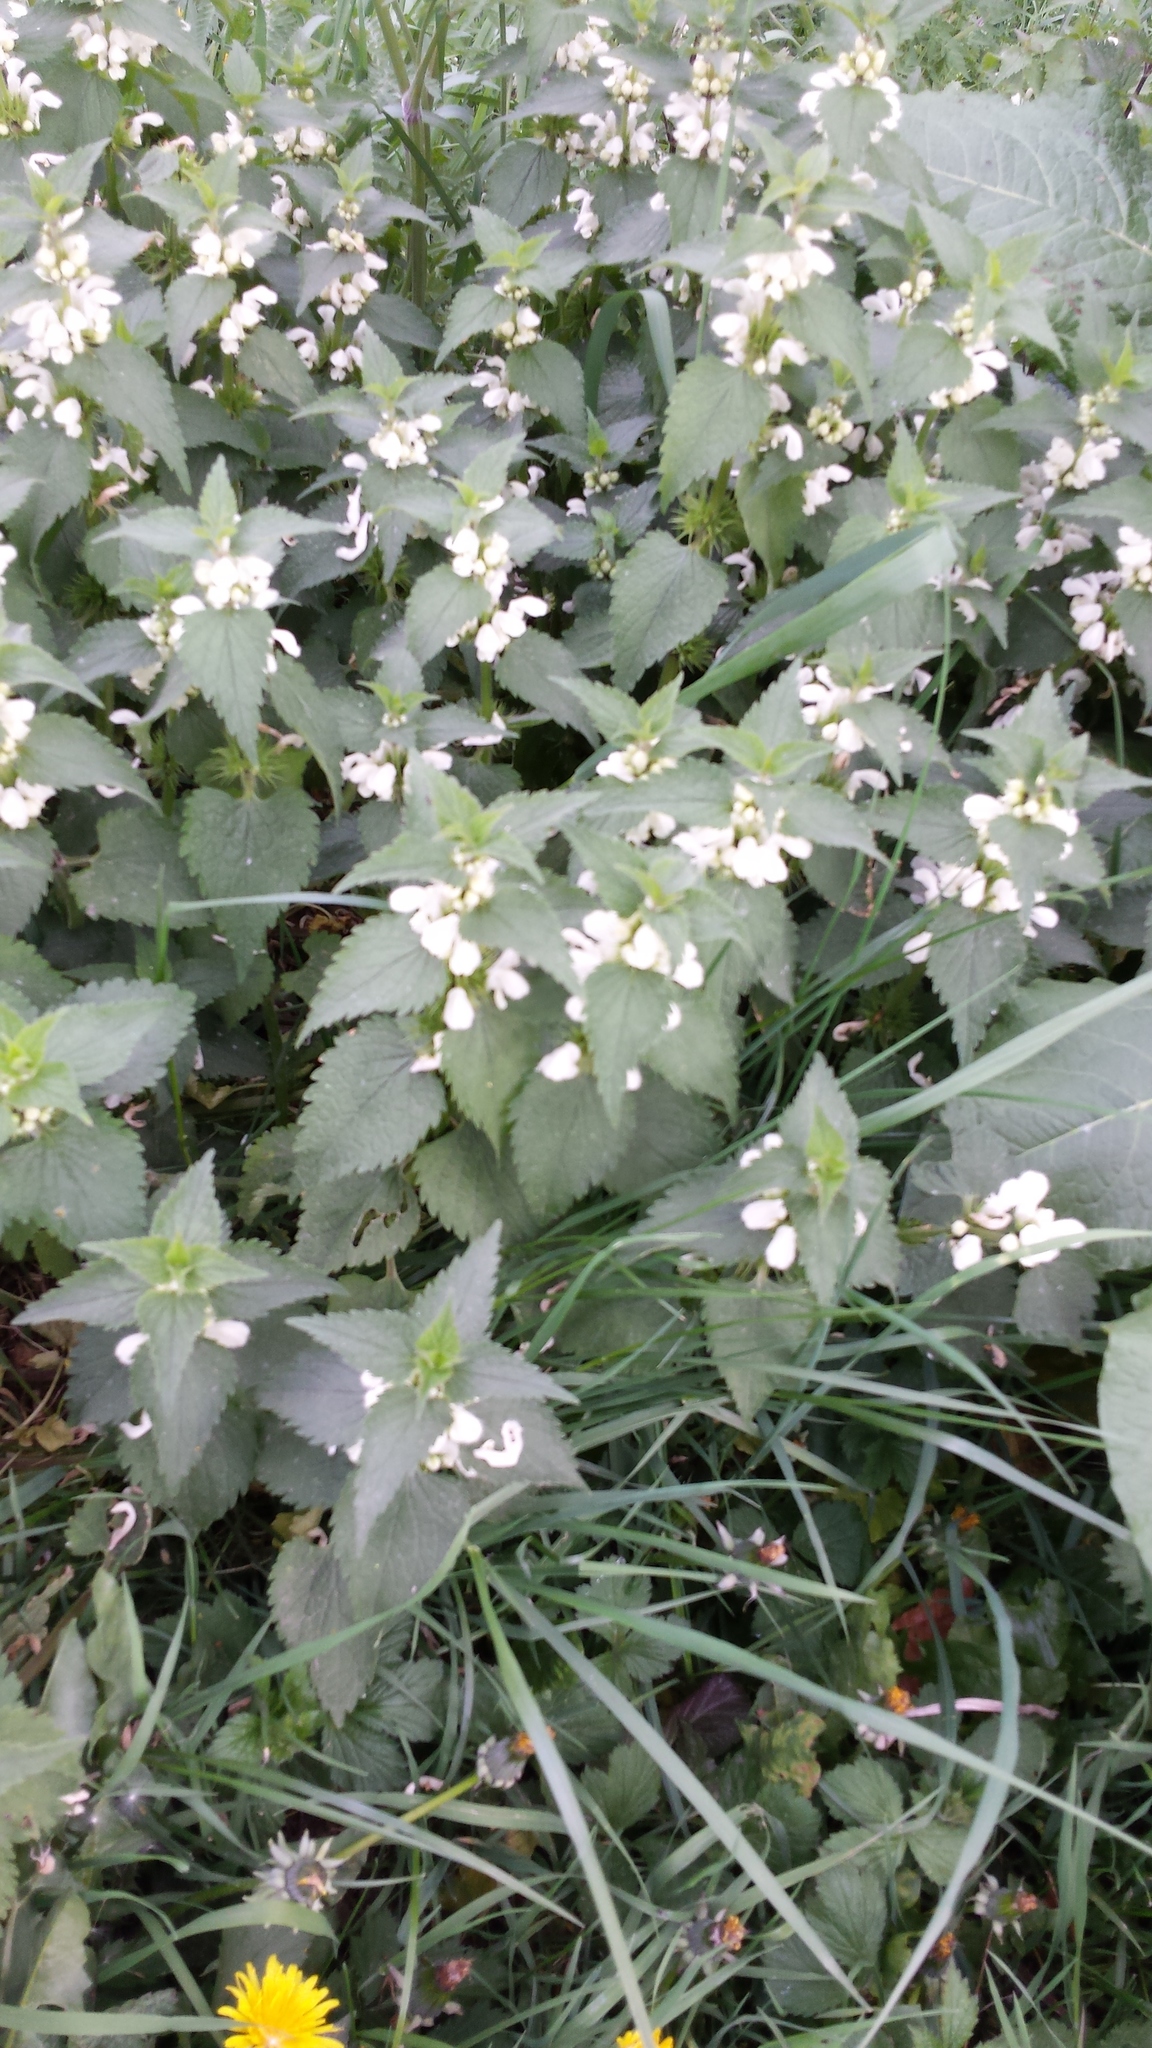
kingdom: Plantae
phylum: Tracheophyta
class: Magnoliopsida
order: Lamiales
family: Lamiaceae
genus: Lamium
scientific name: Lamium album
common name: White dead-nettle
